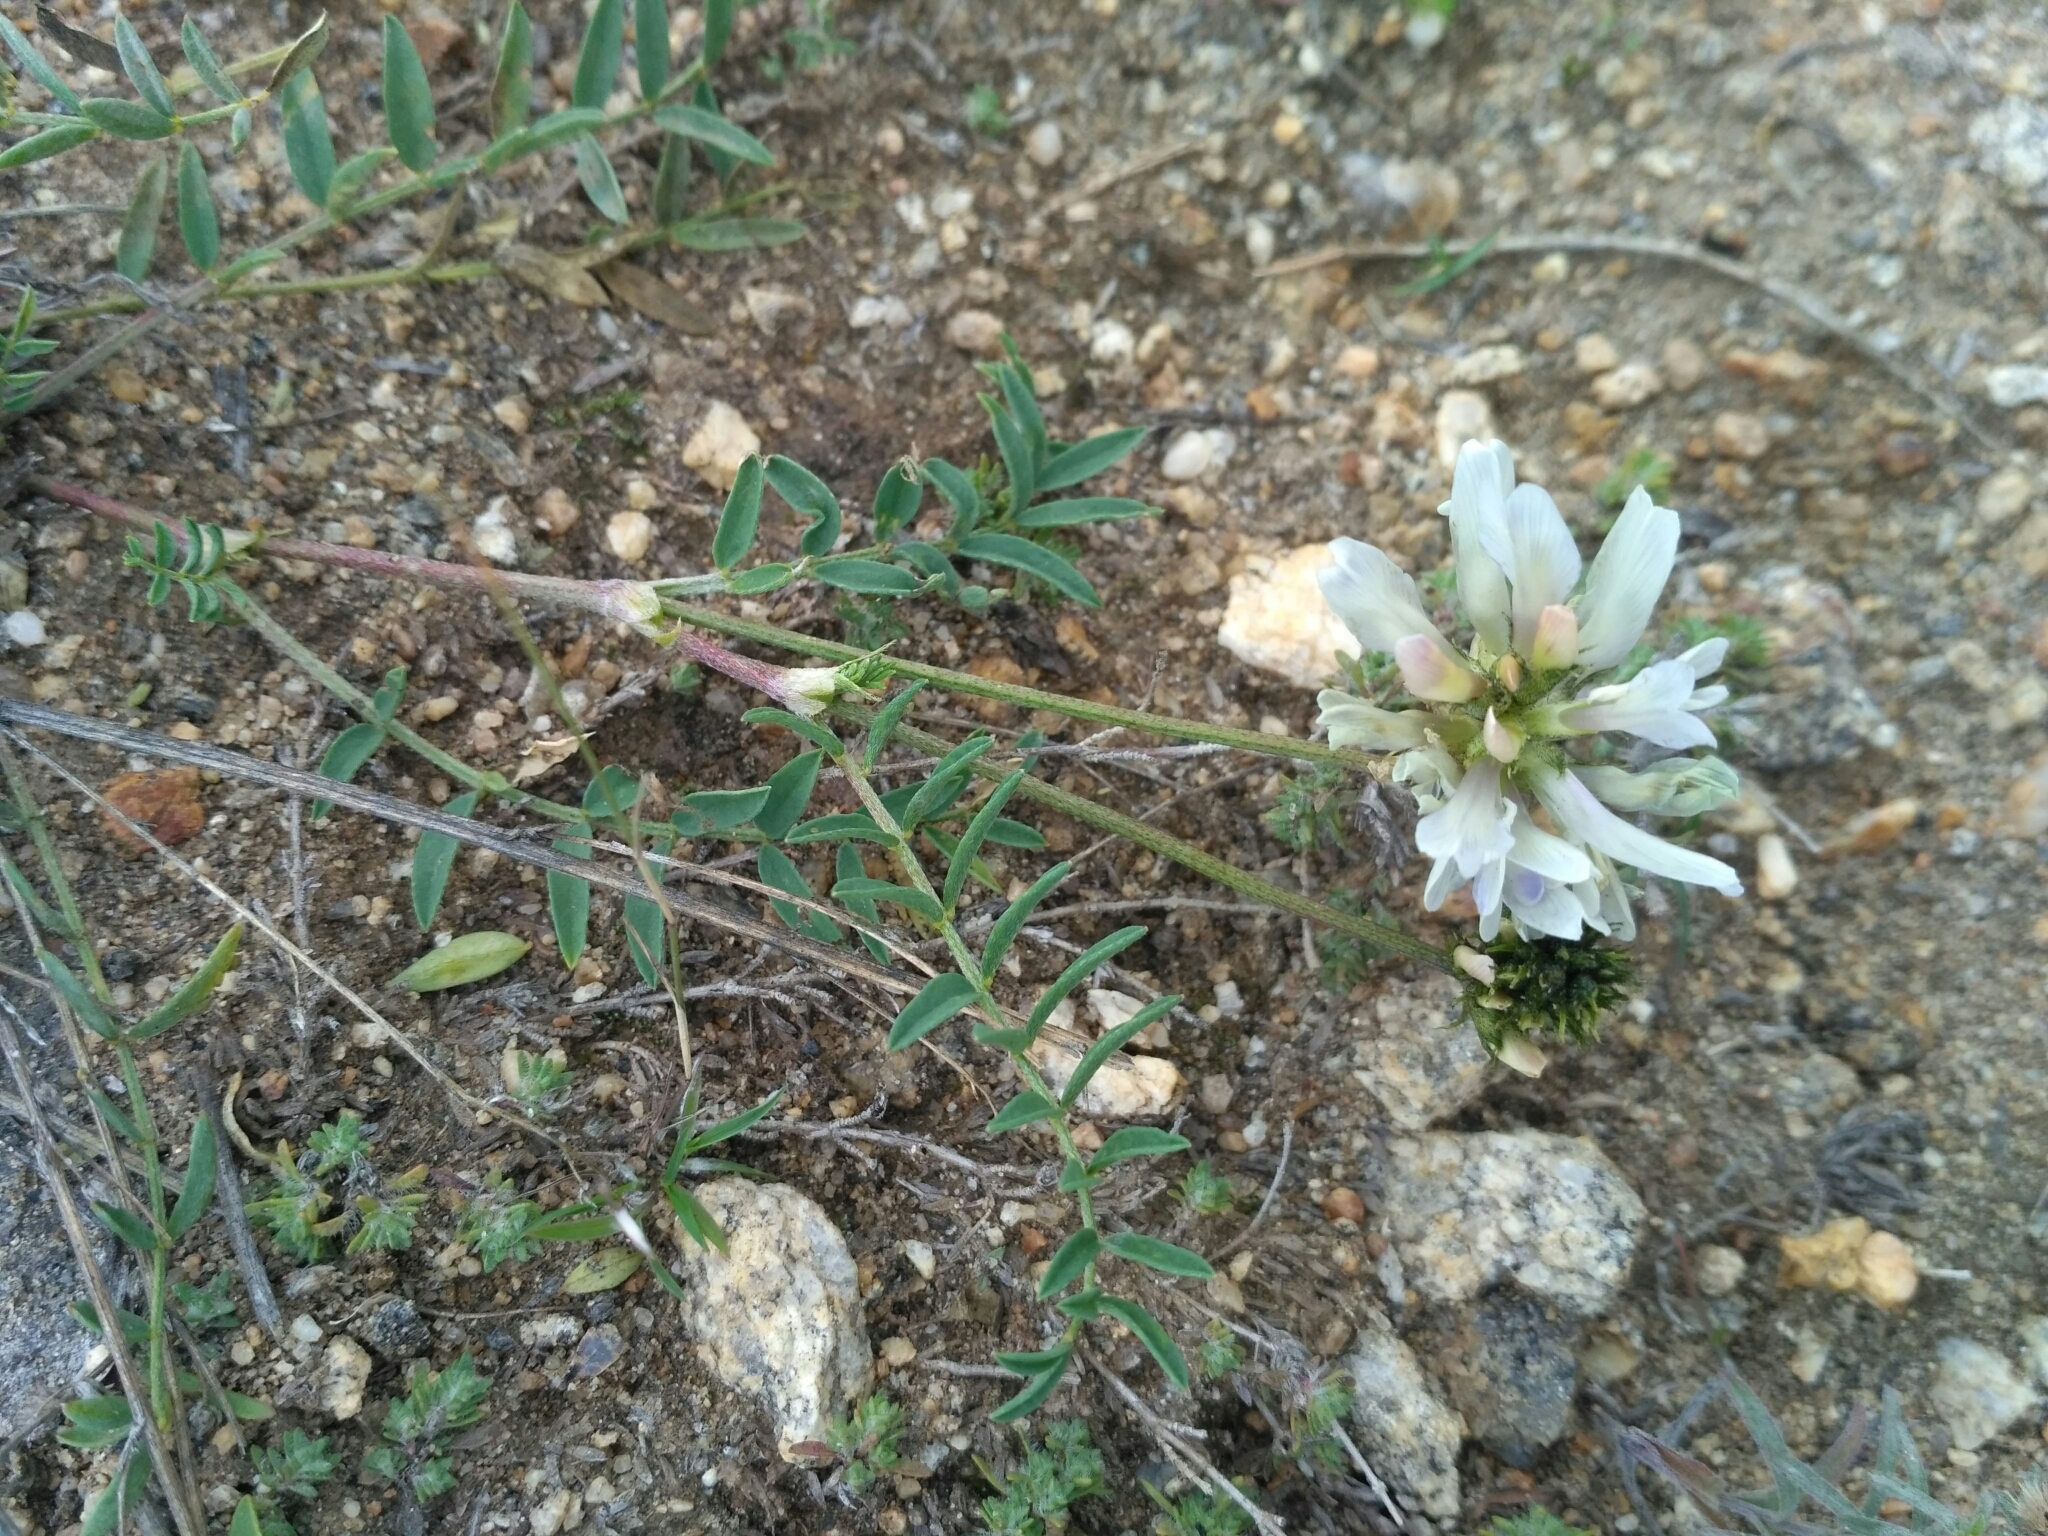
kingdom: Plantae
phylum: Tracheophyta
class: Magnoliopsida
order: Fabales
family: Fabaceae
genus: Astragalus
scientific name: Astragalus laxmannii
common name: Laxmann's milk-vetch
